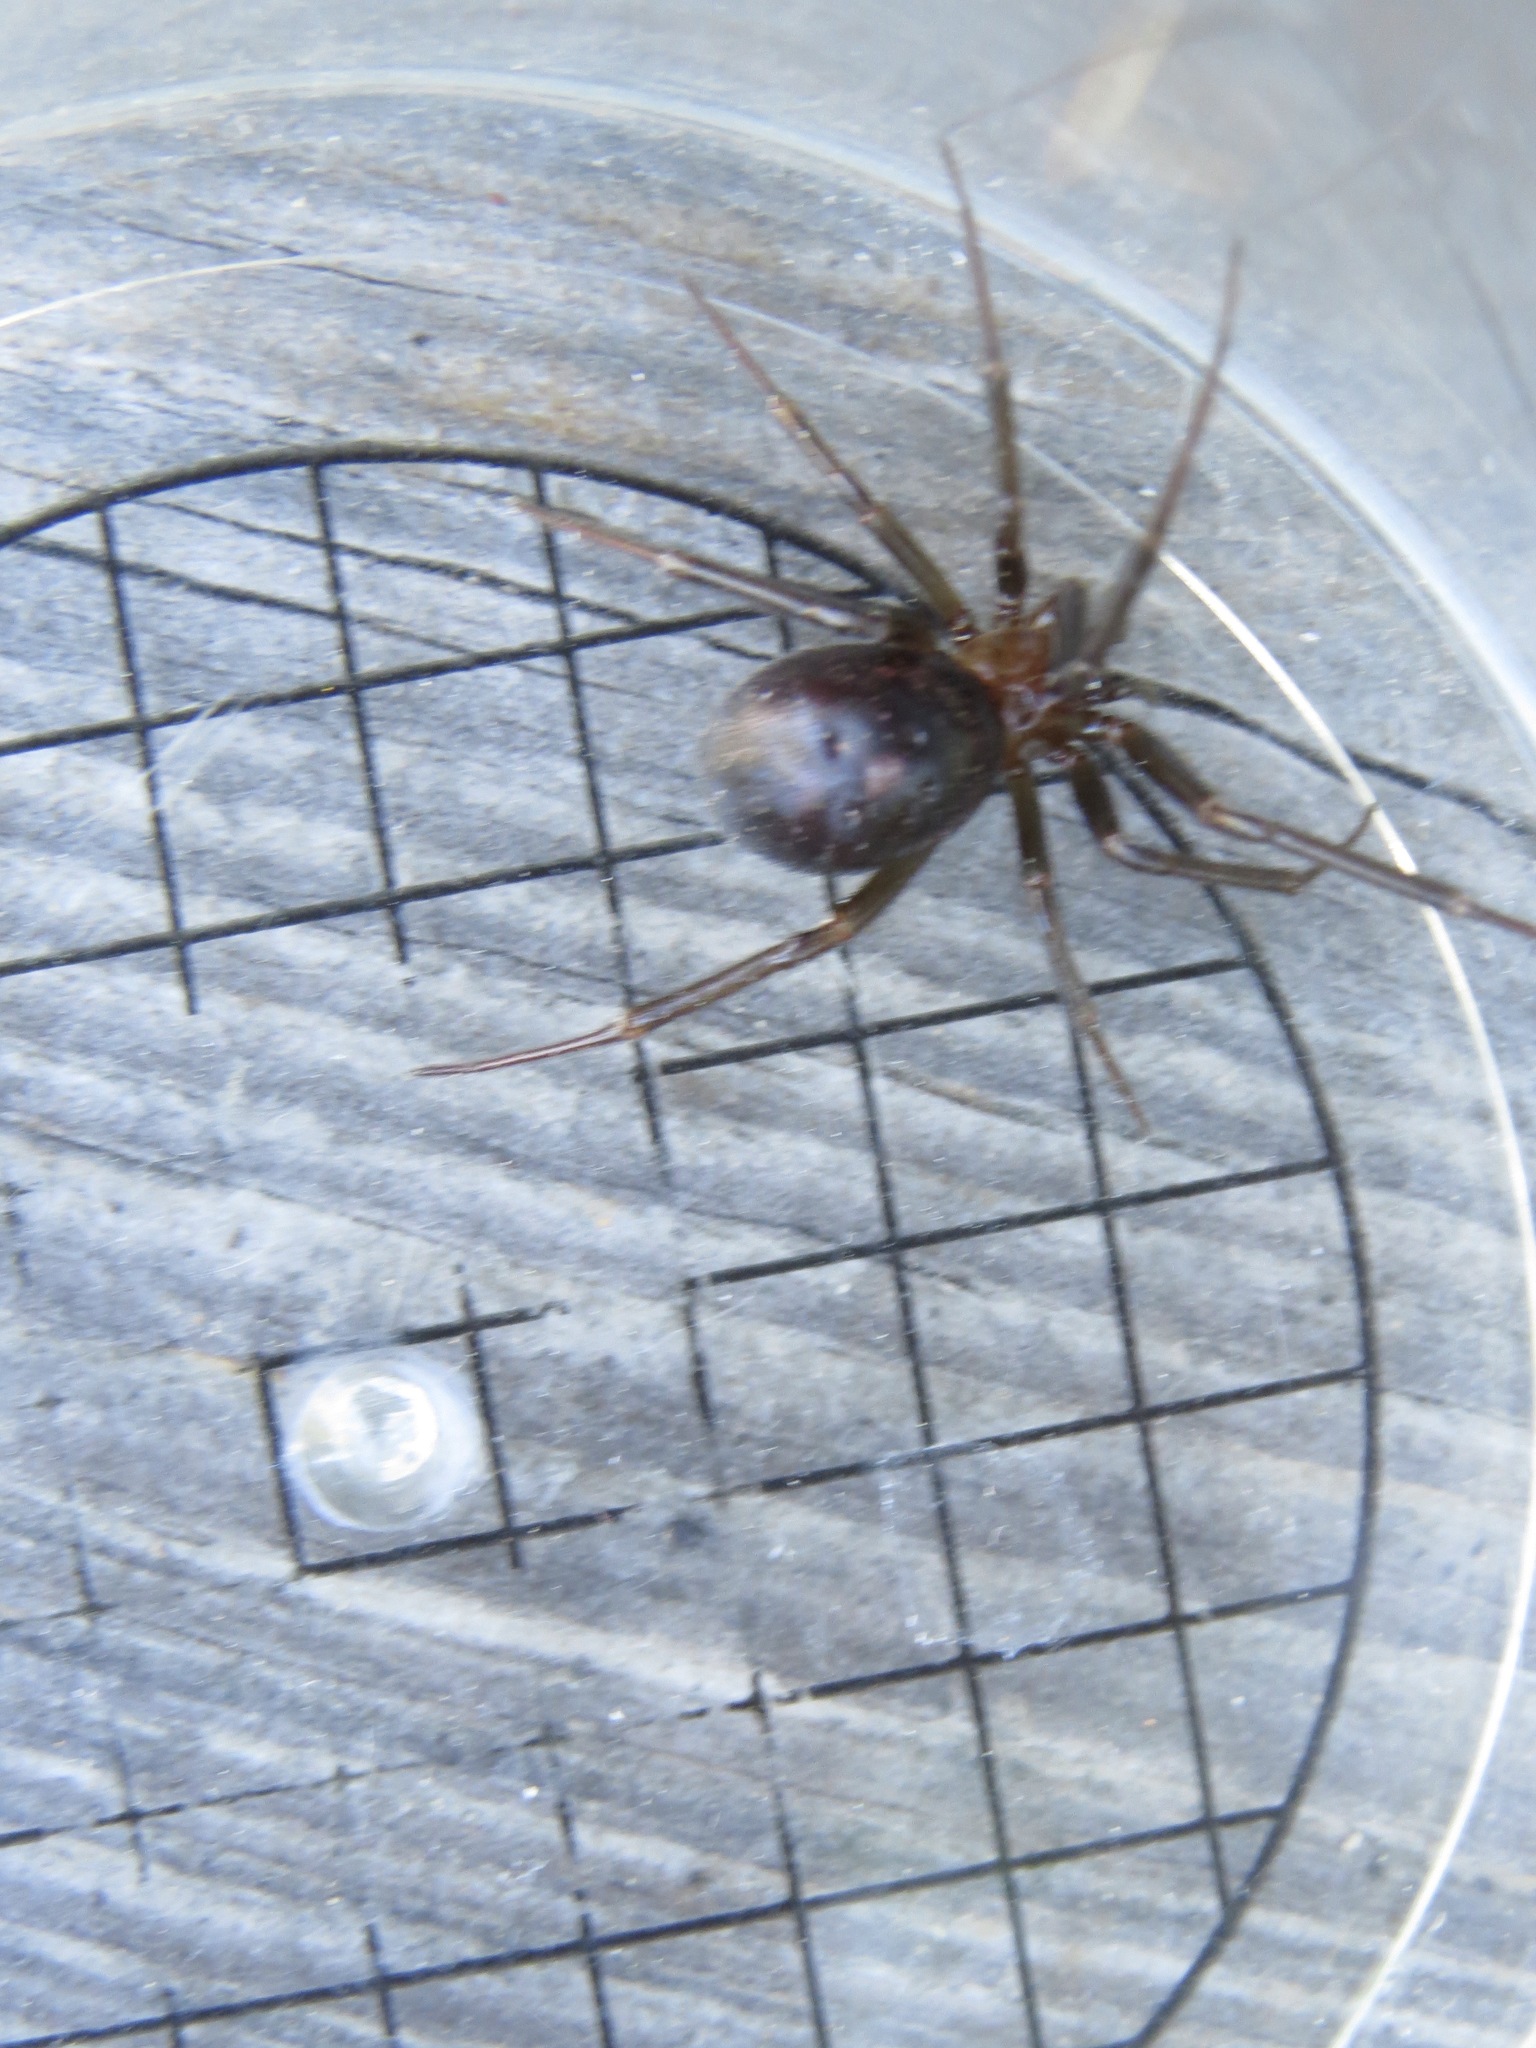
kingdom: Animalia
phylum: Arthropoda
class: Arachnida
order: Araneae
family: Theridiidae
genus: Steatoda
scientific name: Steatoda grossa
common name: False black widow
